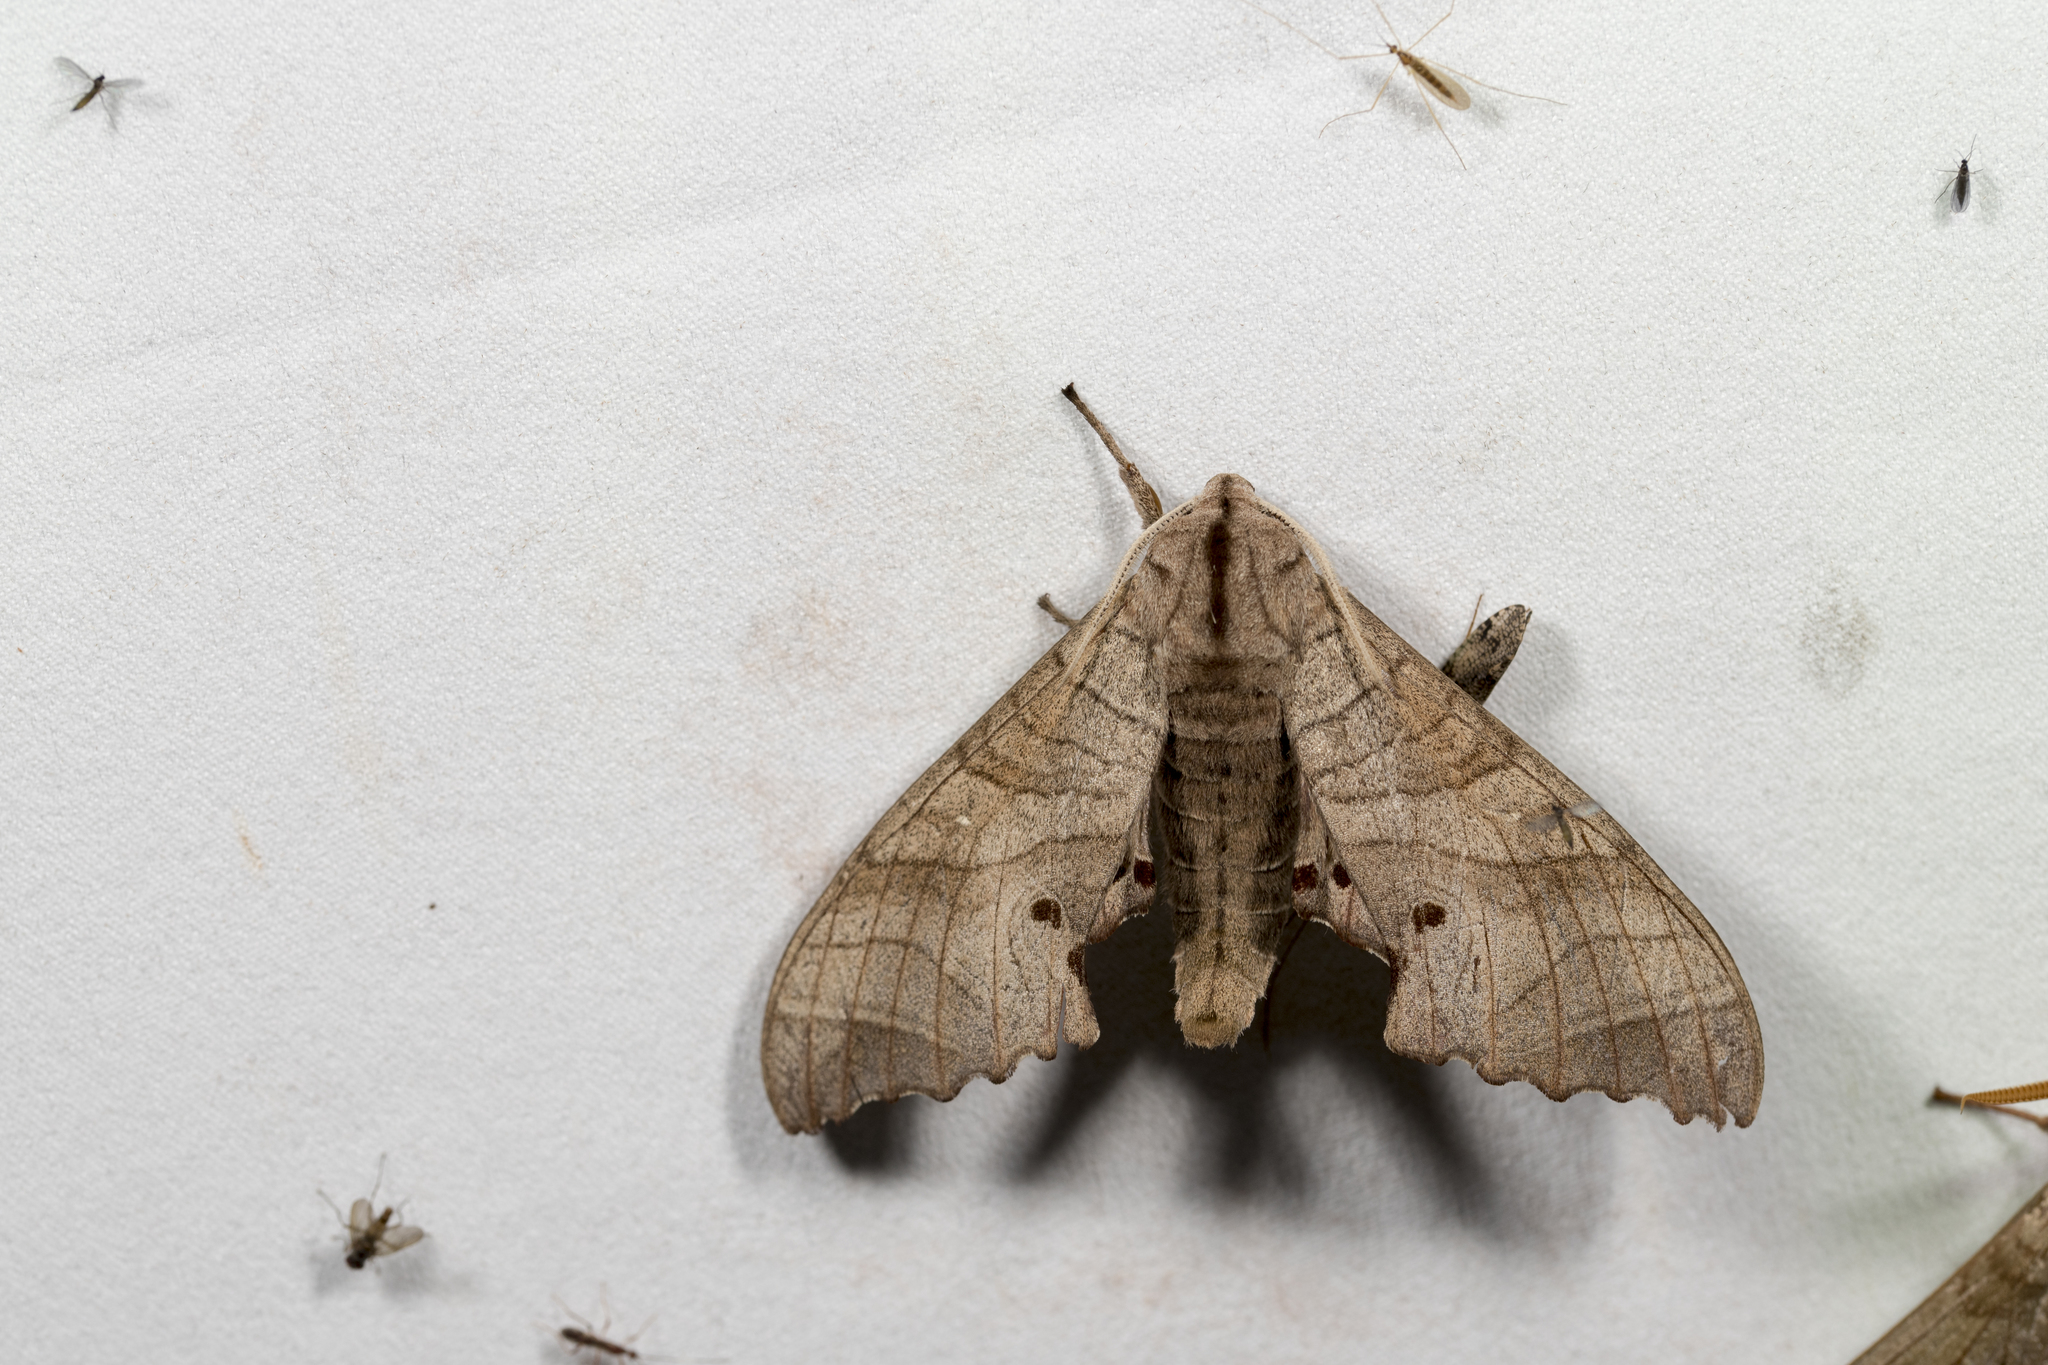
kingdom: Animalia
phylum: Arthropoda
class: Insecta
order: Lepidoptera
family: Sphingidae
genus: Marumba
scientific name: Marumba dyras
